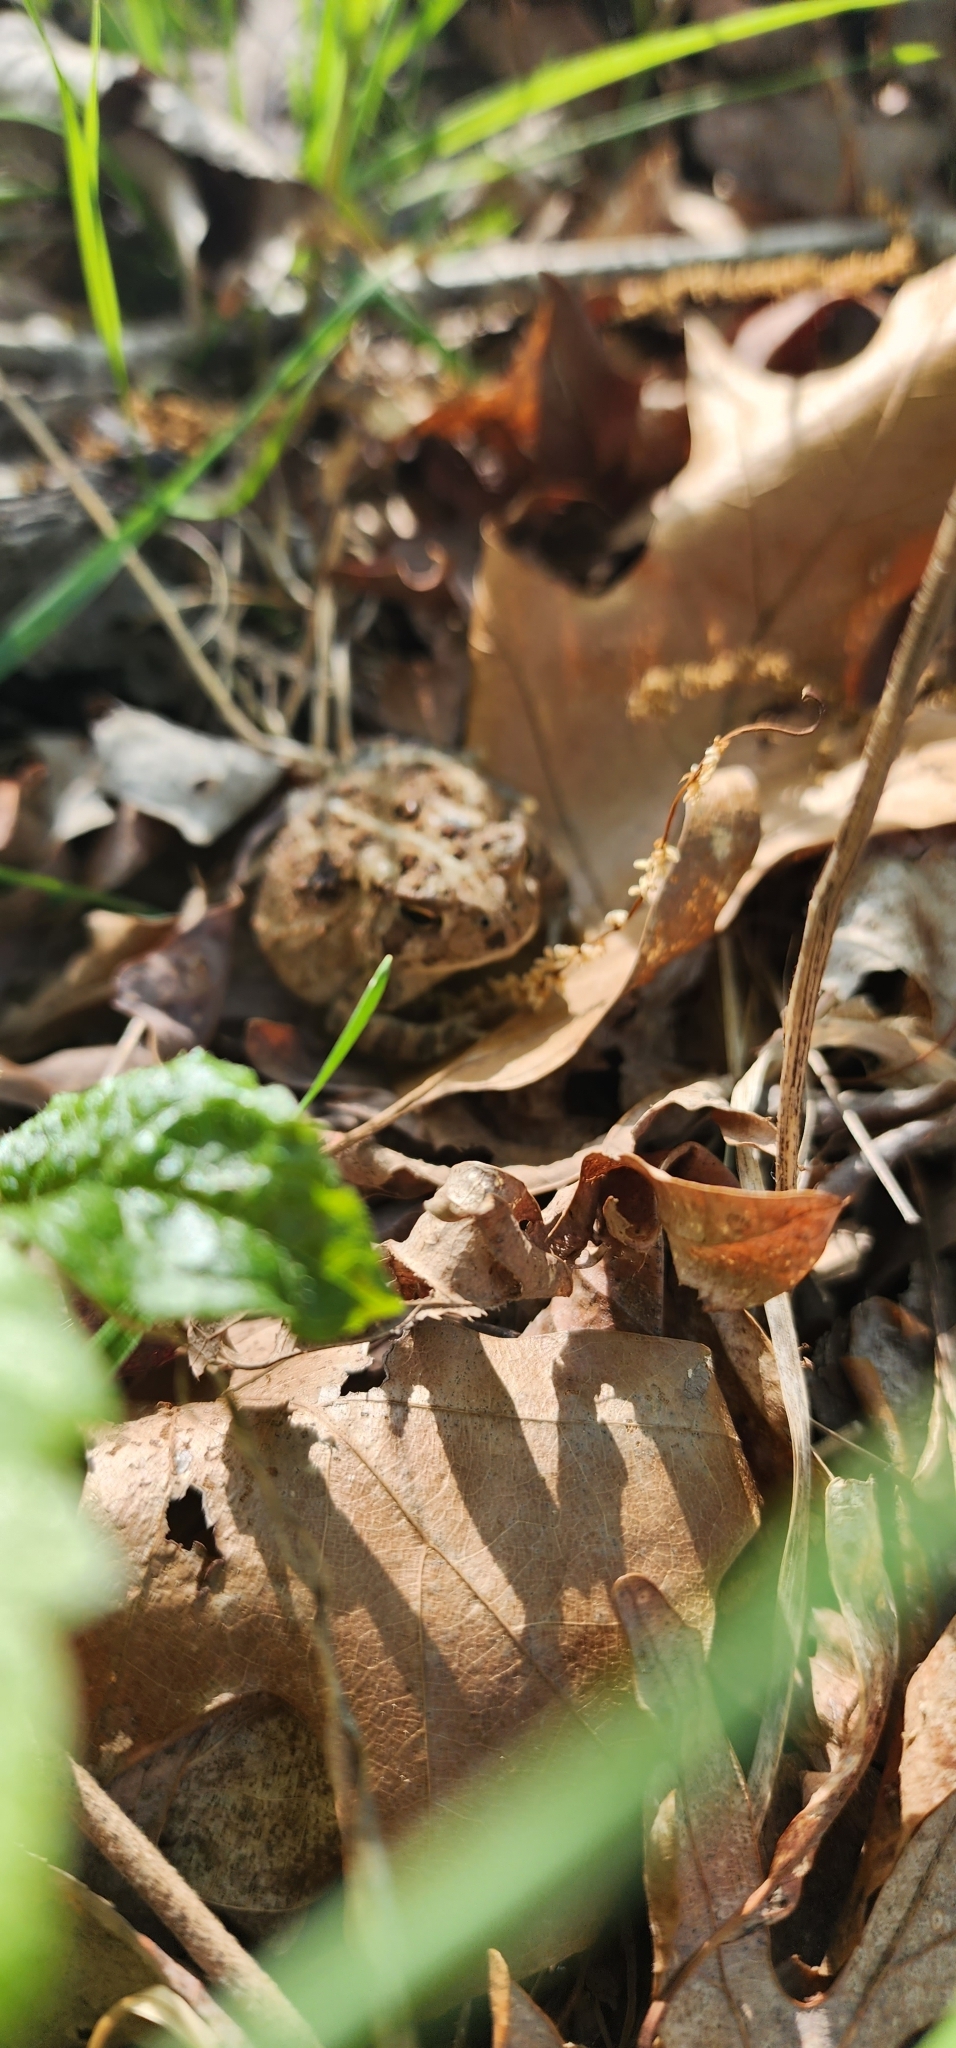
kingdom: Animalia
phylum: Chordata
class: Amphibia
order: Anura
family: Bufonidae
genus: Anaxyrus
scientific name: Anaxyrus americanus
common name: American toad
